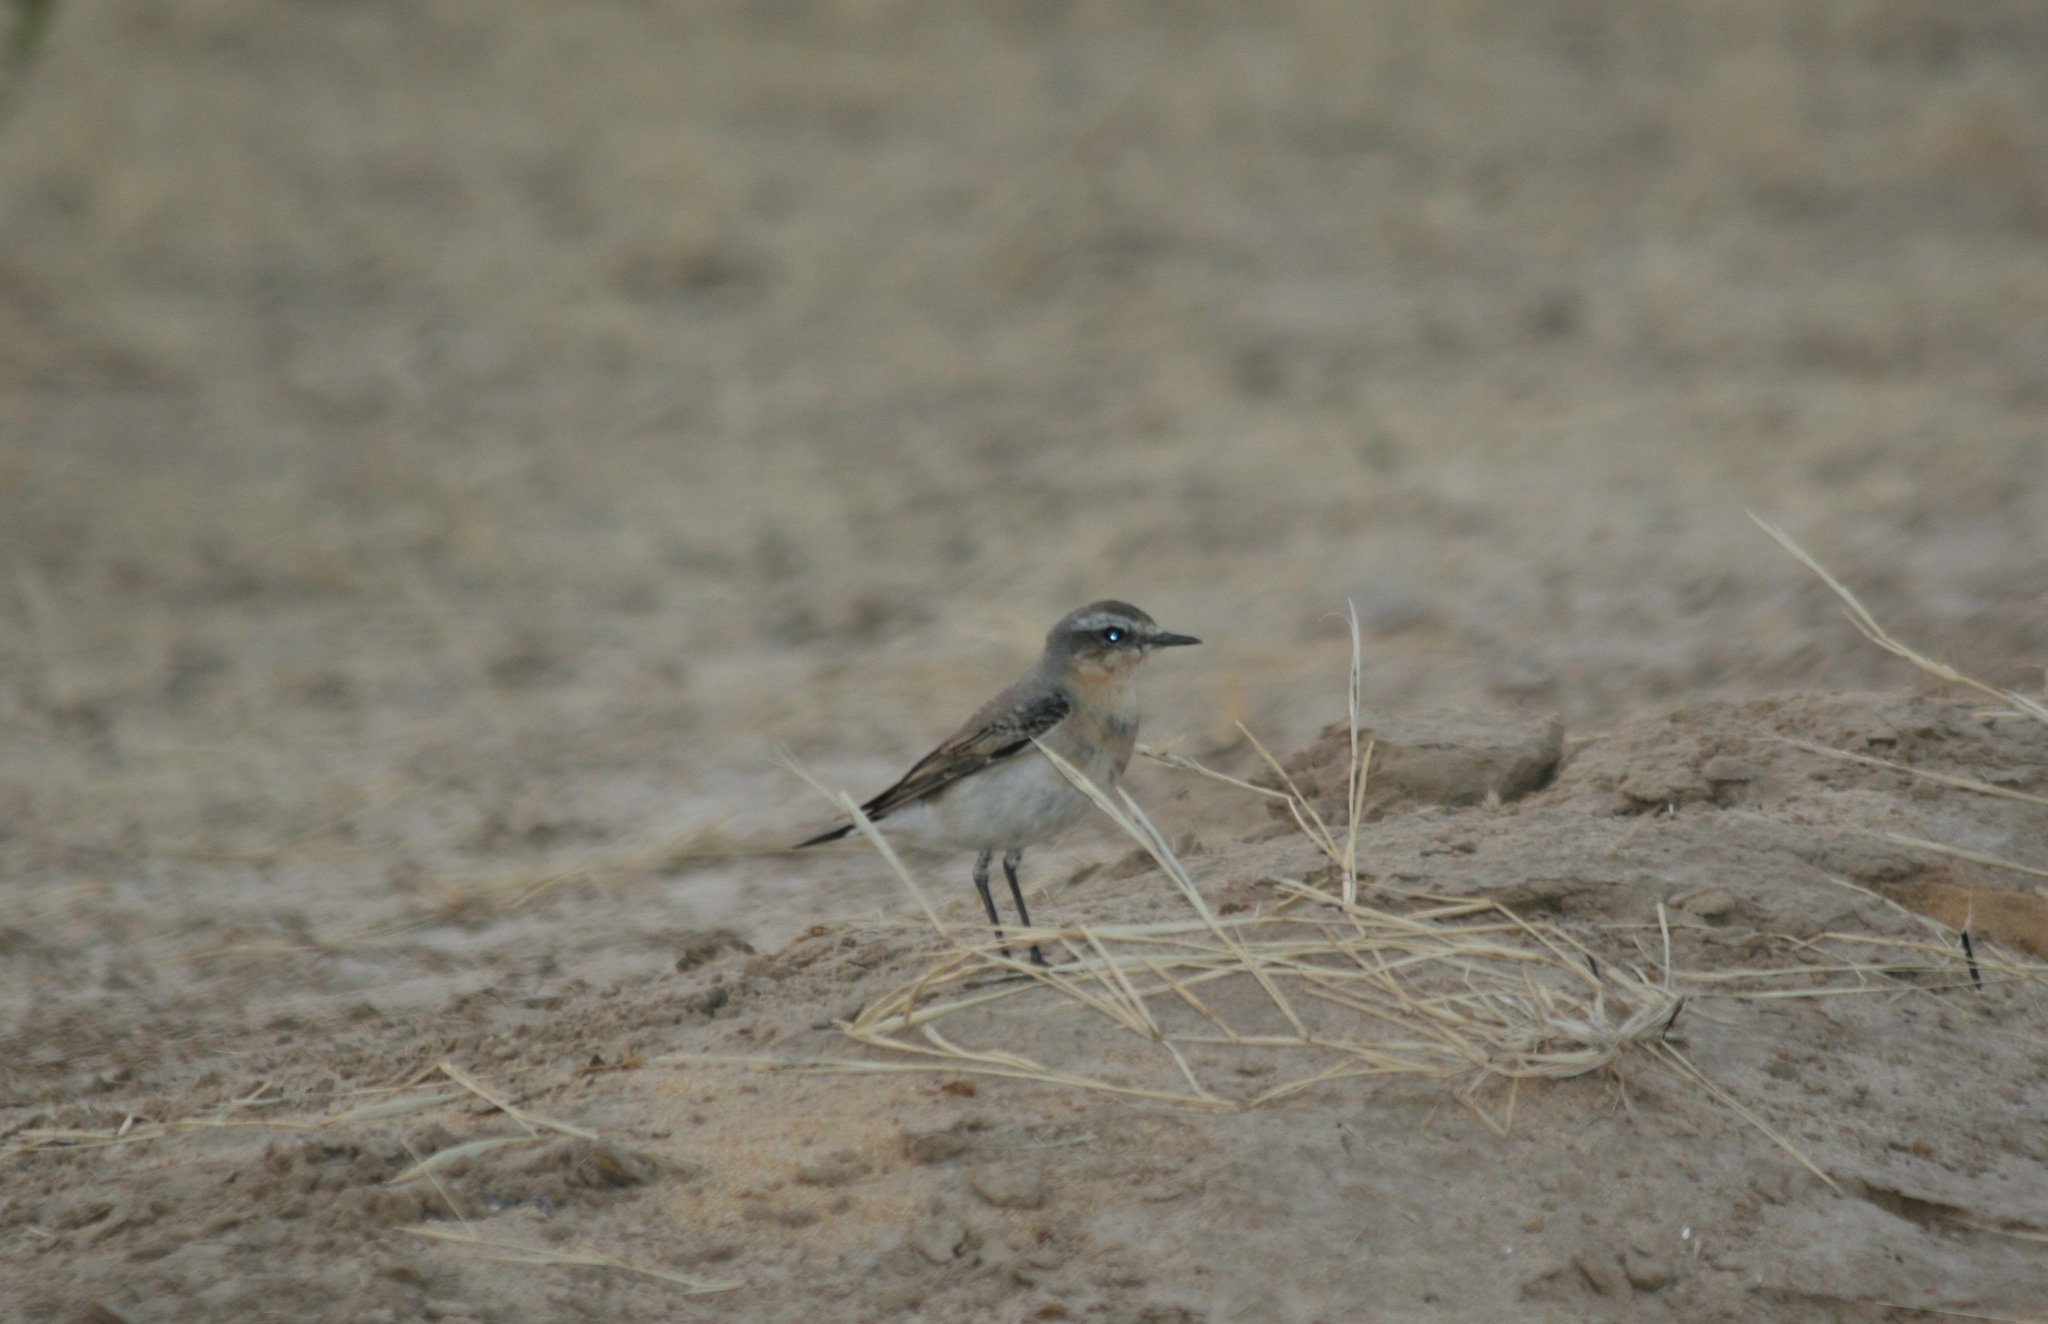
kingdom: Animalia
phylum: Chordata
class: Aves
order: Passeriformes
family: Muscicapidae
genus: Oenanthe
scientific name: Oenanthe oenanthe
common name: Northern wheatear
